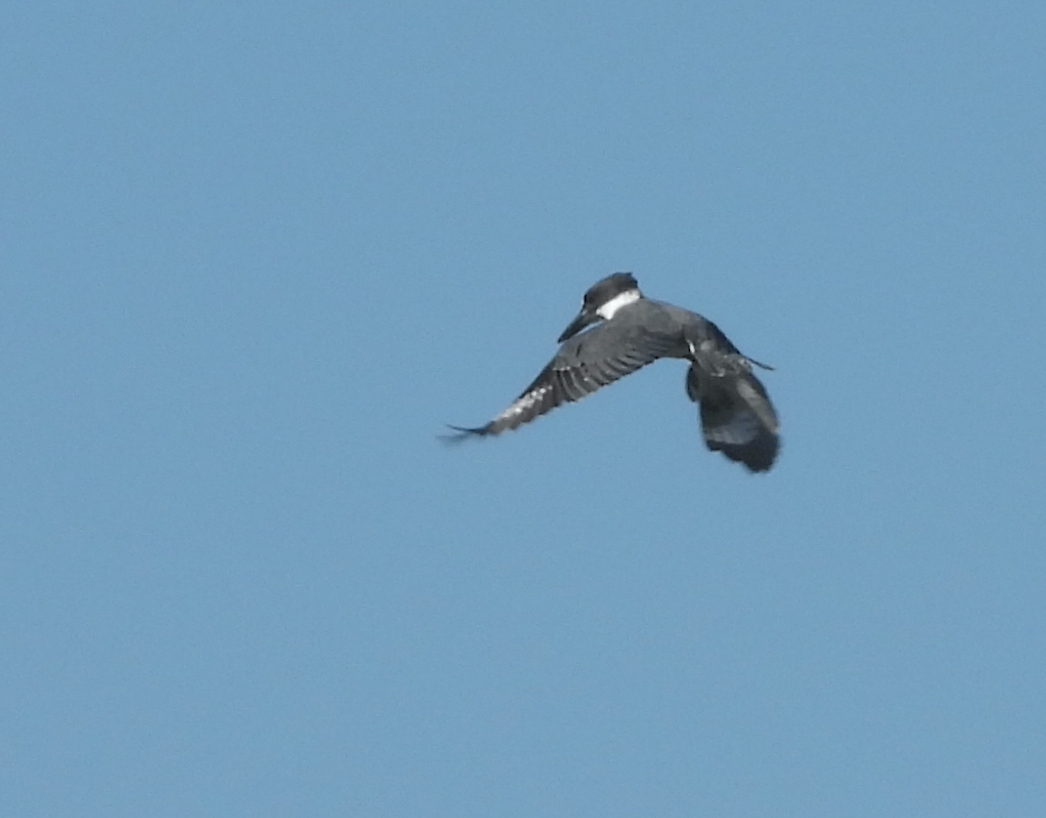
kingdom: Animalia
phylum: Chordata
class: Aves
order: Coraciiformes
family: Alcedinidae
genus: Megaceryle
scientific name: Megaceryle alcyon
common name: Belted kingfisher
